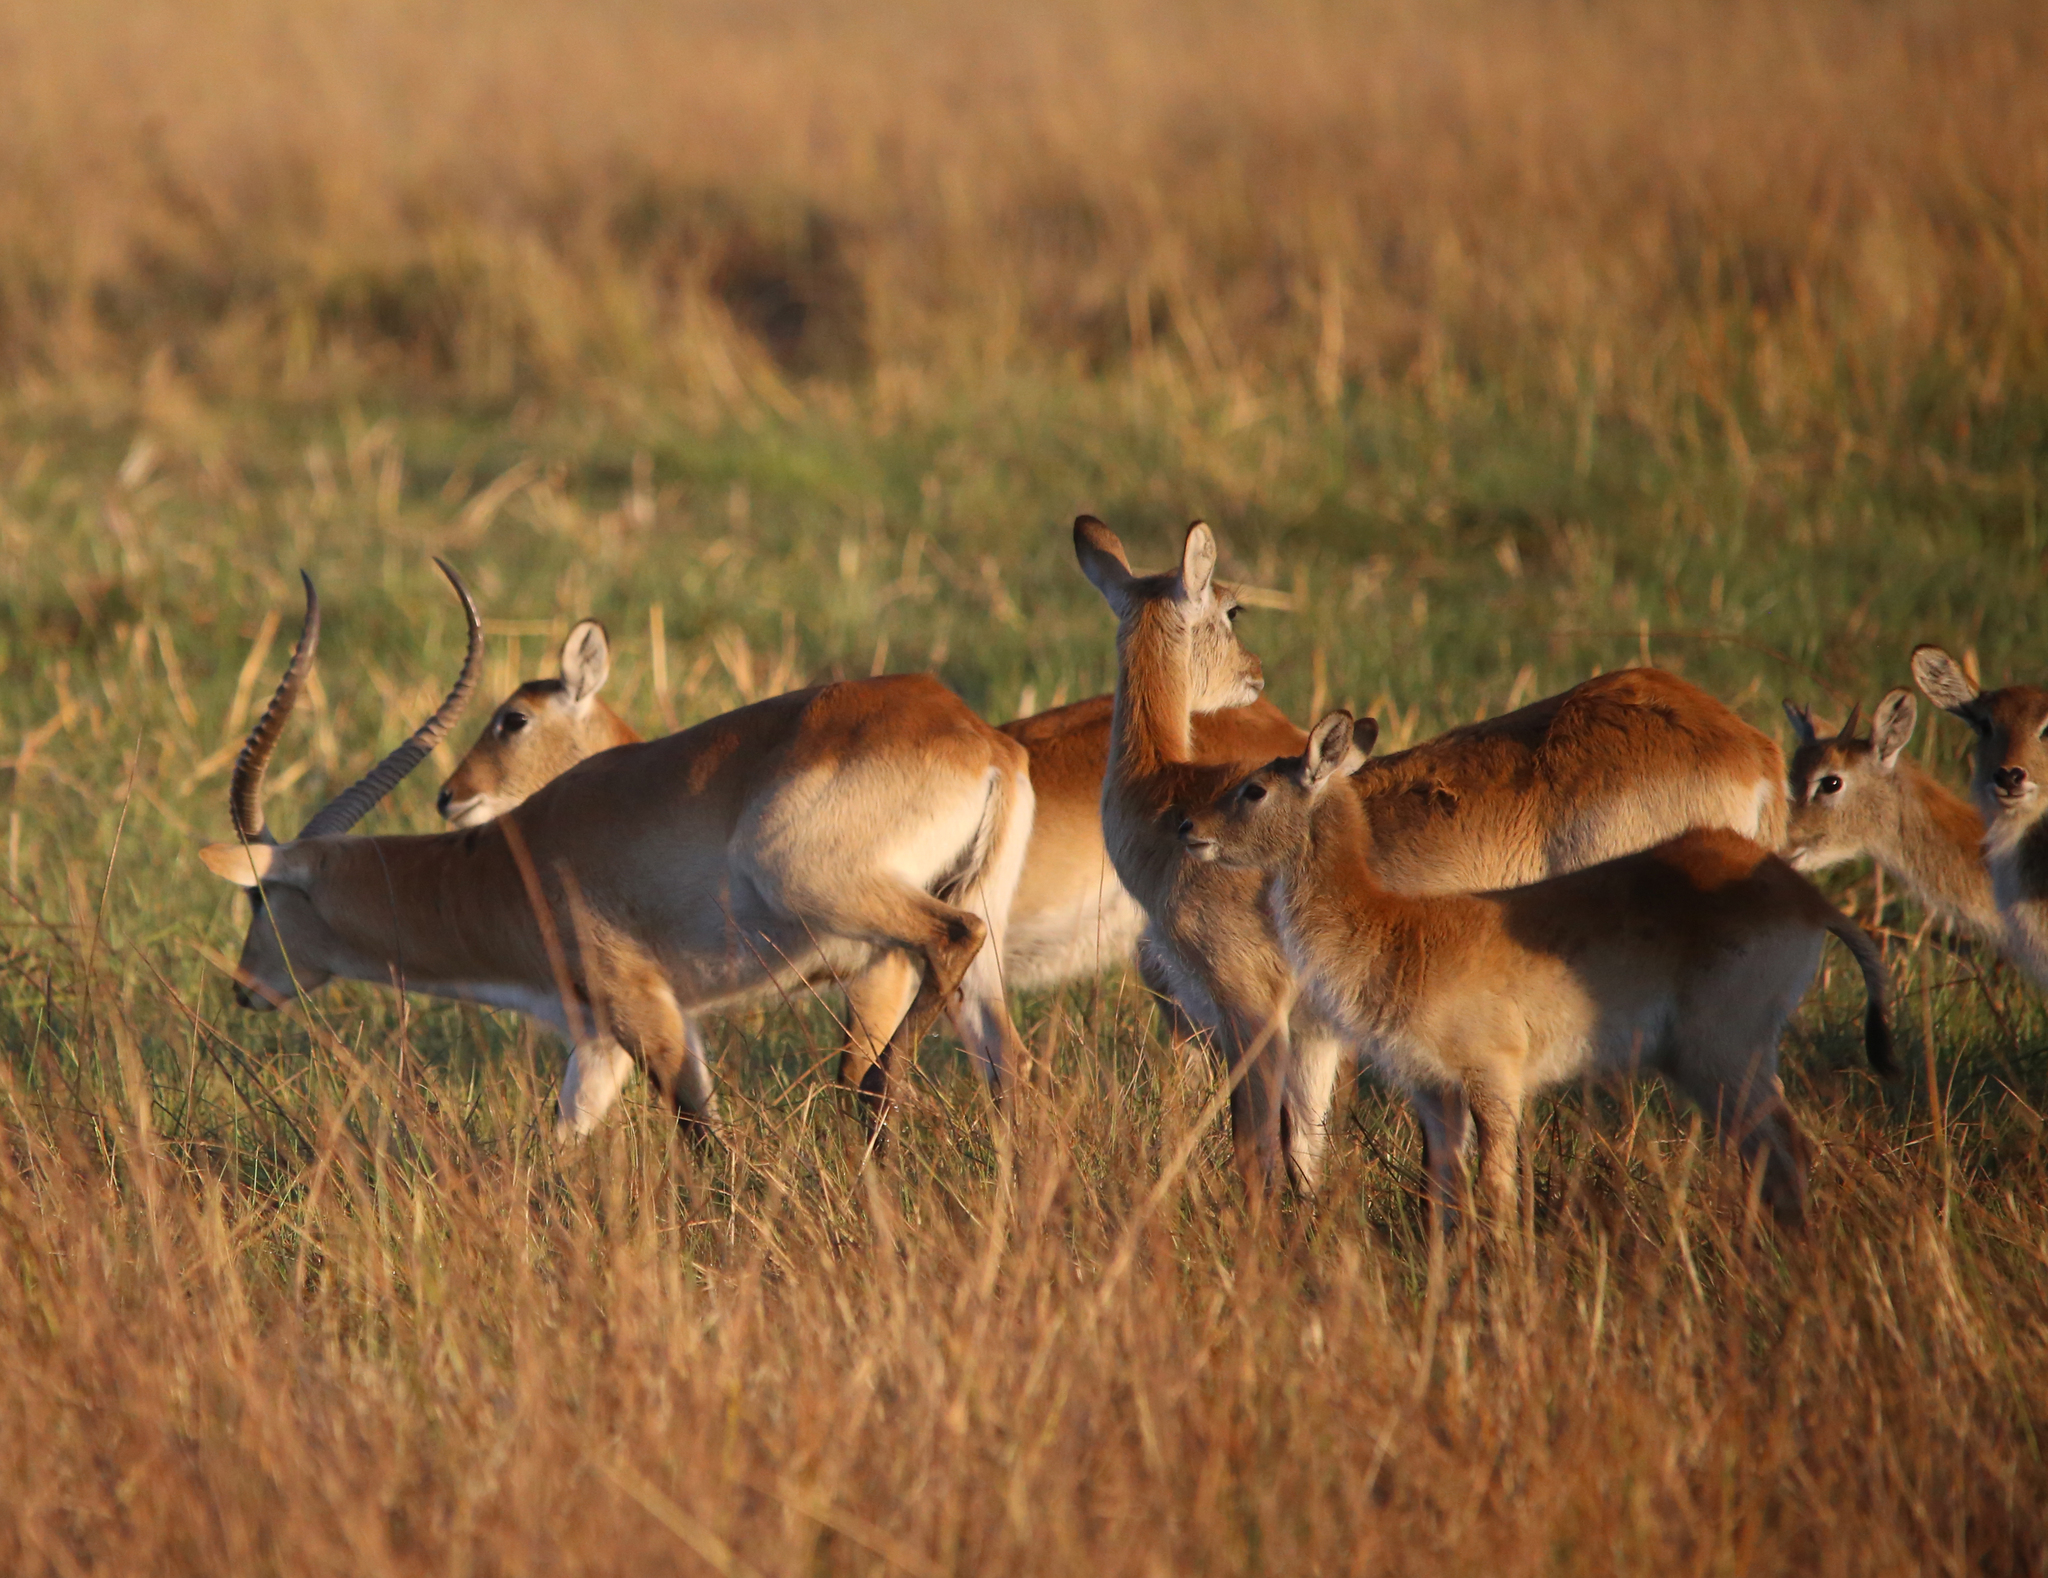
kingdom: Animalia
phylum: Chordata
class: Mammalia
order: Artiodactyla
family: Bovidae
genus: Kobus
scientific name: Kobus leche
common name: Lechwe
